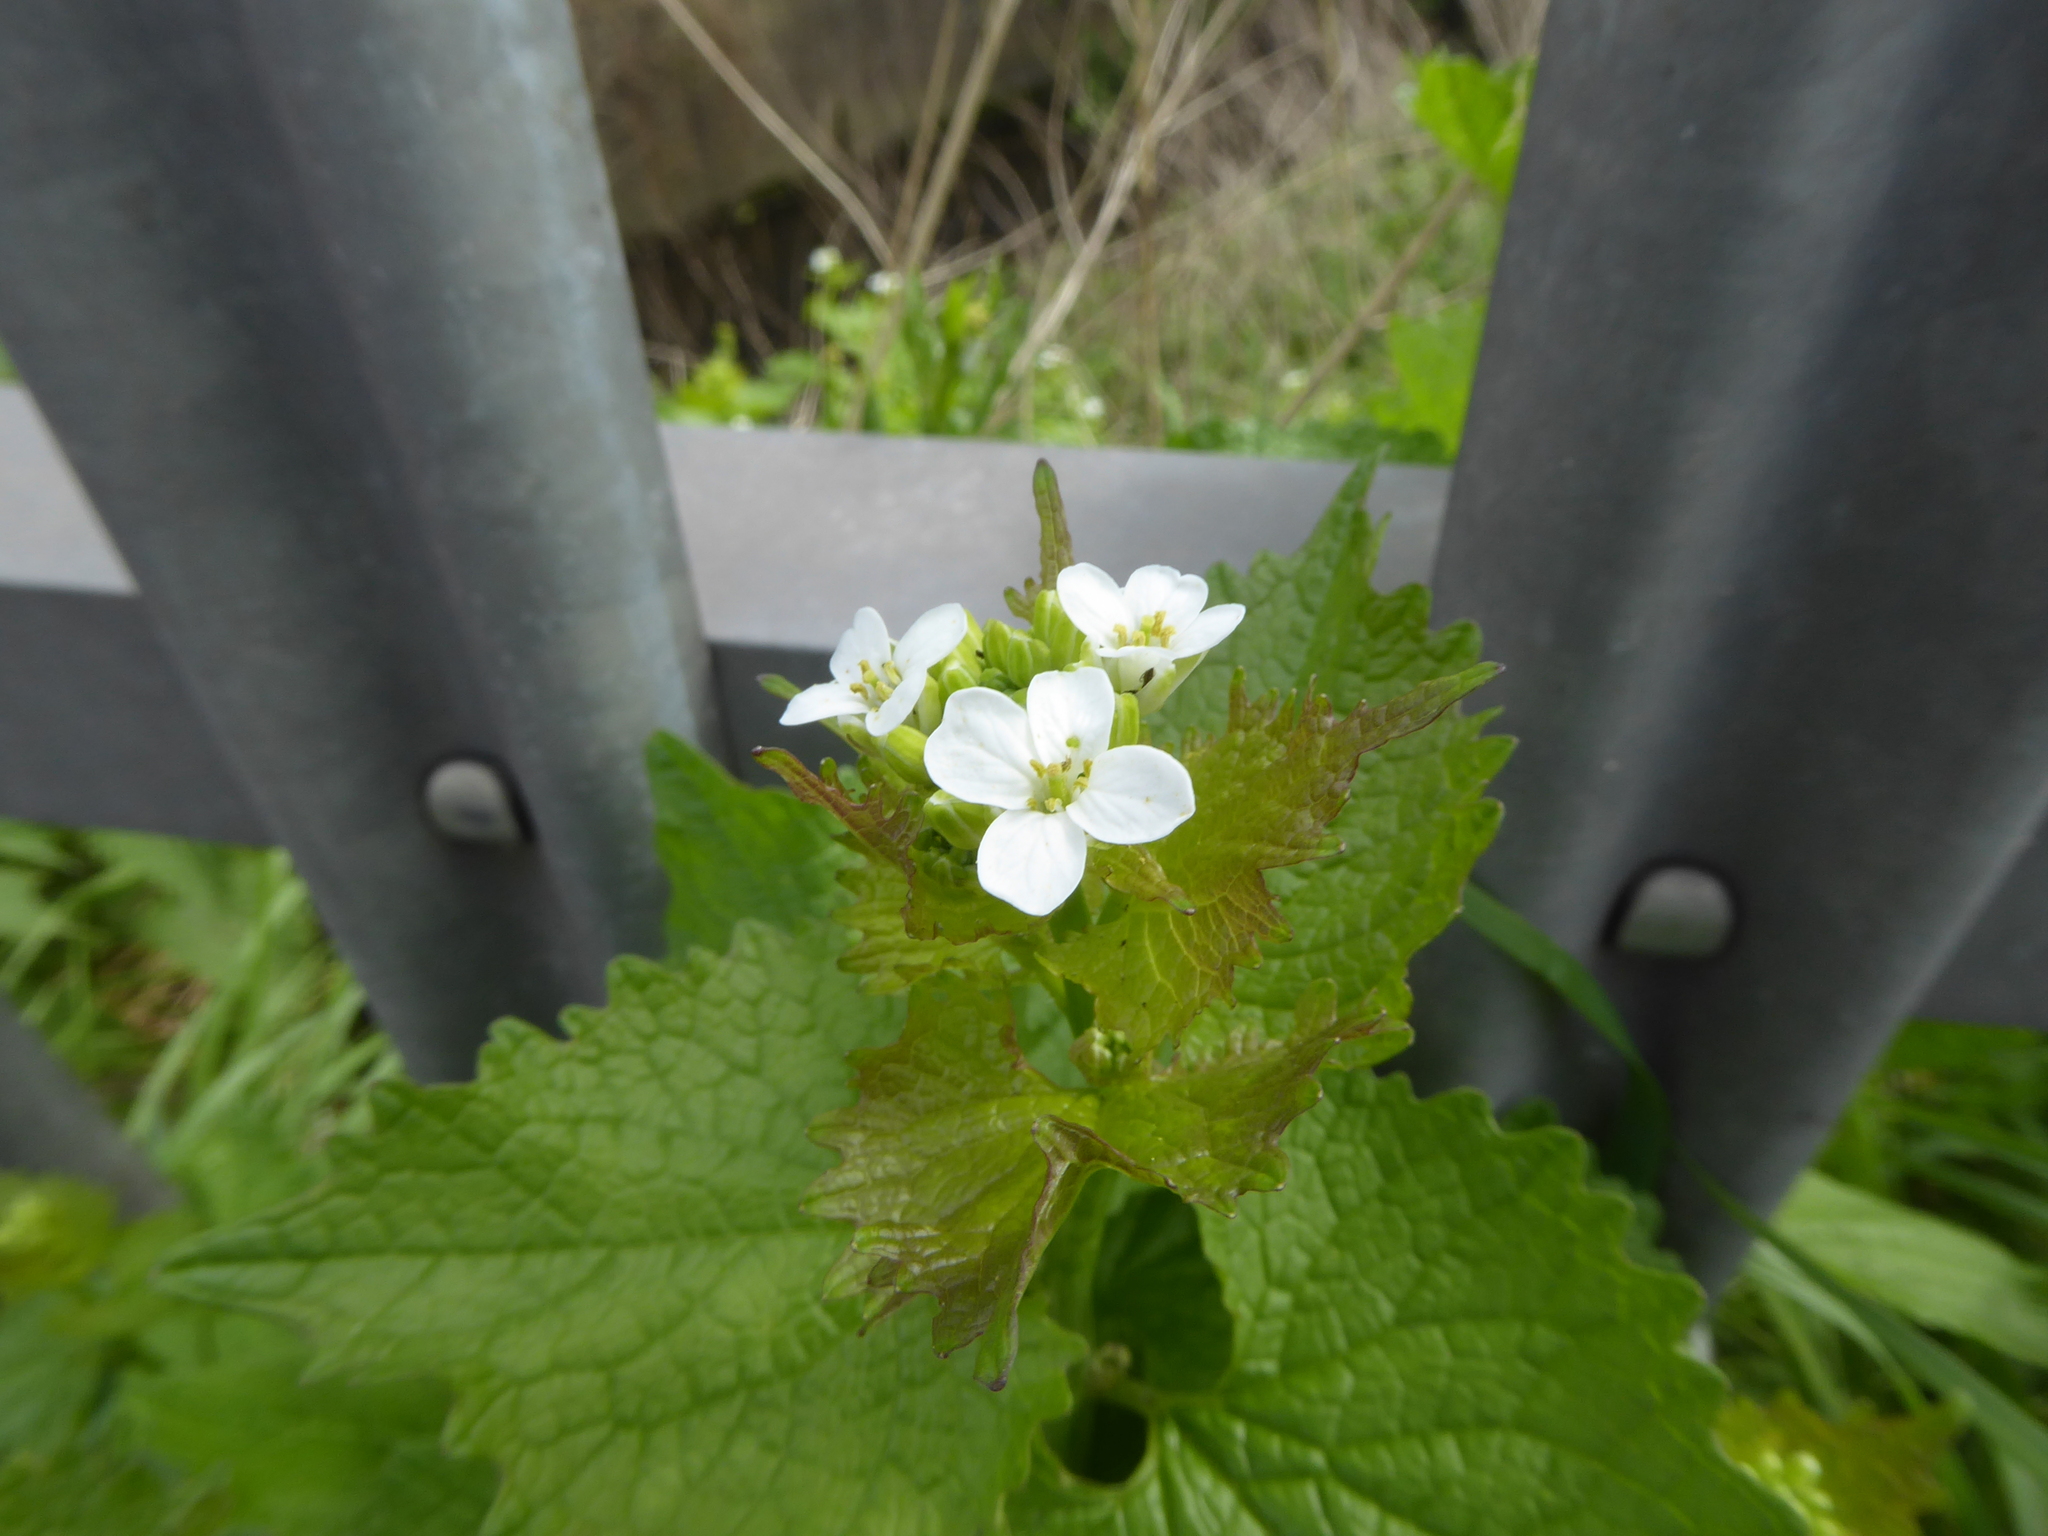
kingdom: Plantae
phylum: Tracheophyta
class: Magnoliopsida
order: Brassicales
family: Brassicaceae
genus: Alliaria
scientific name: Alliaria petiolata
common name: Garlic mustard
